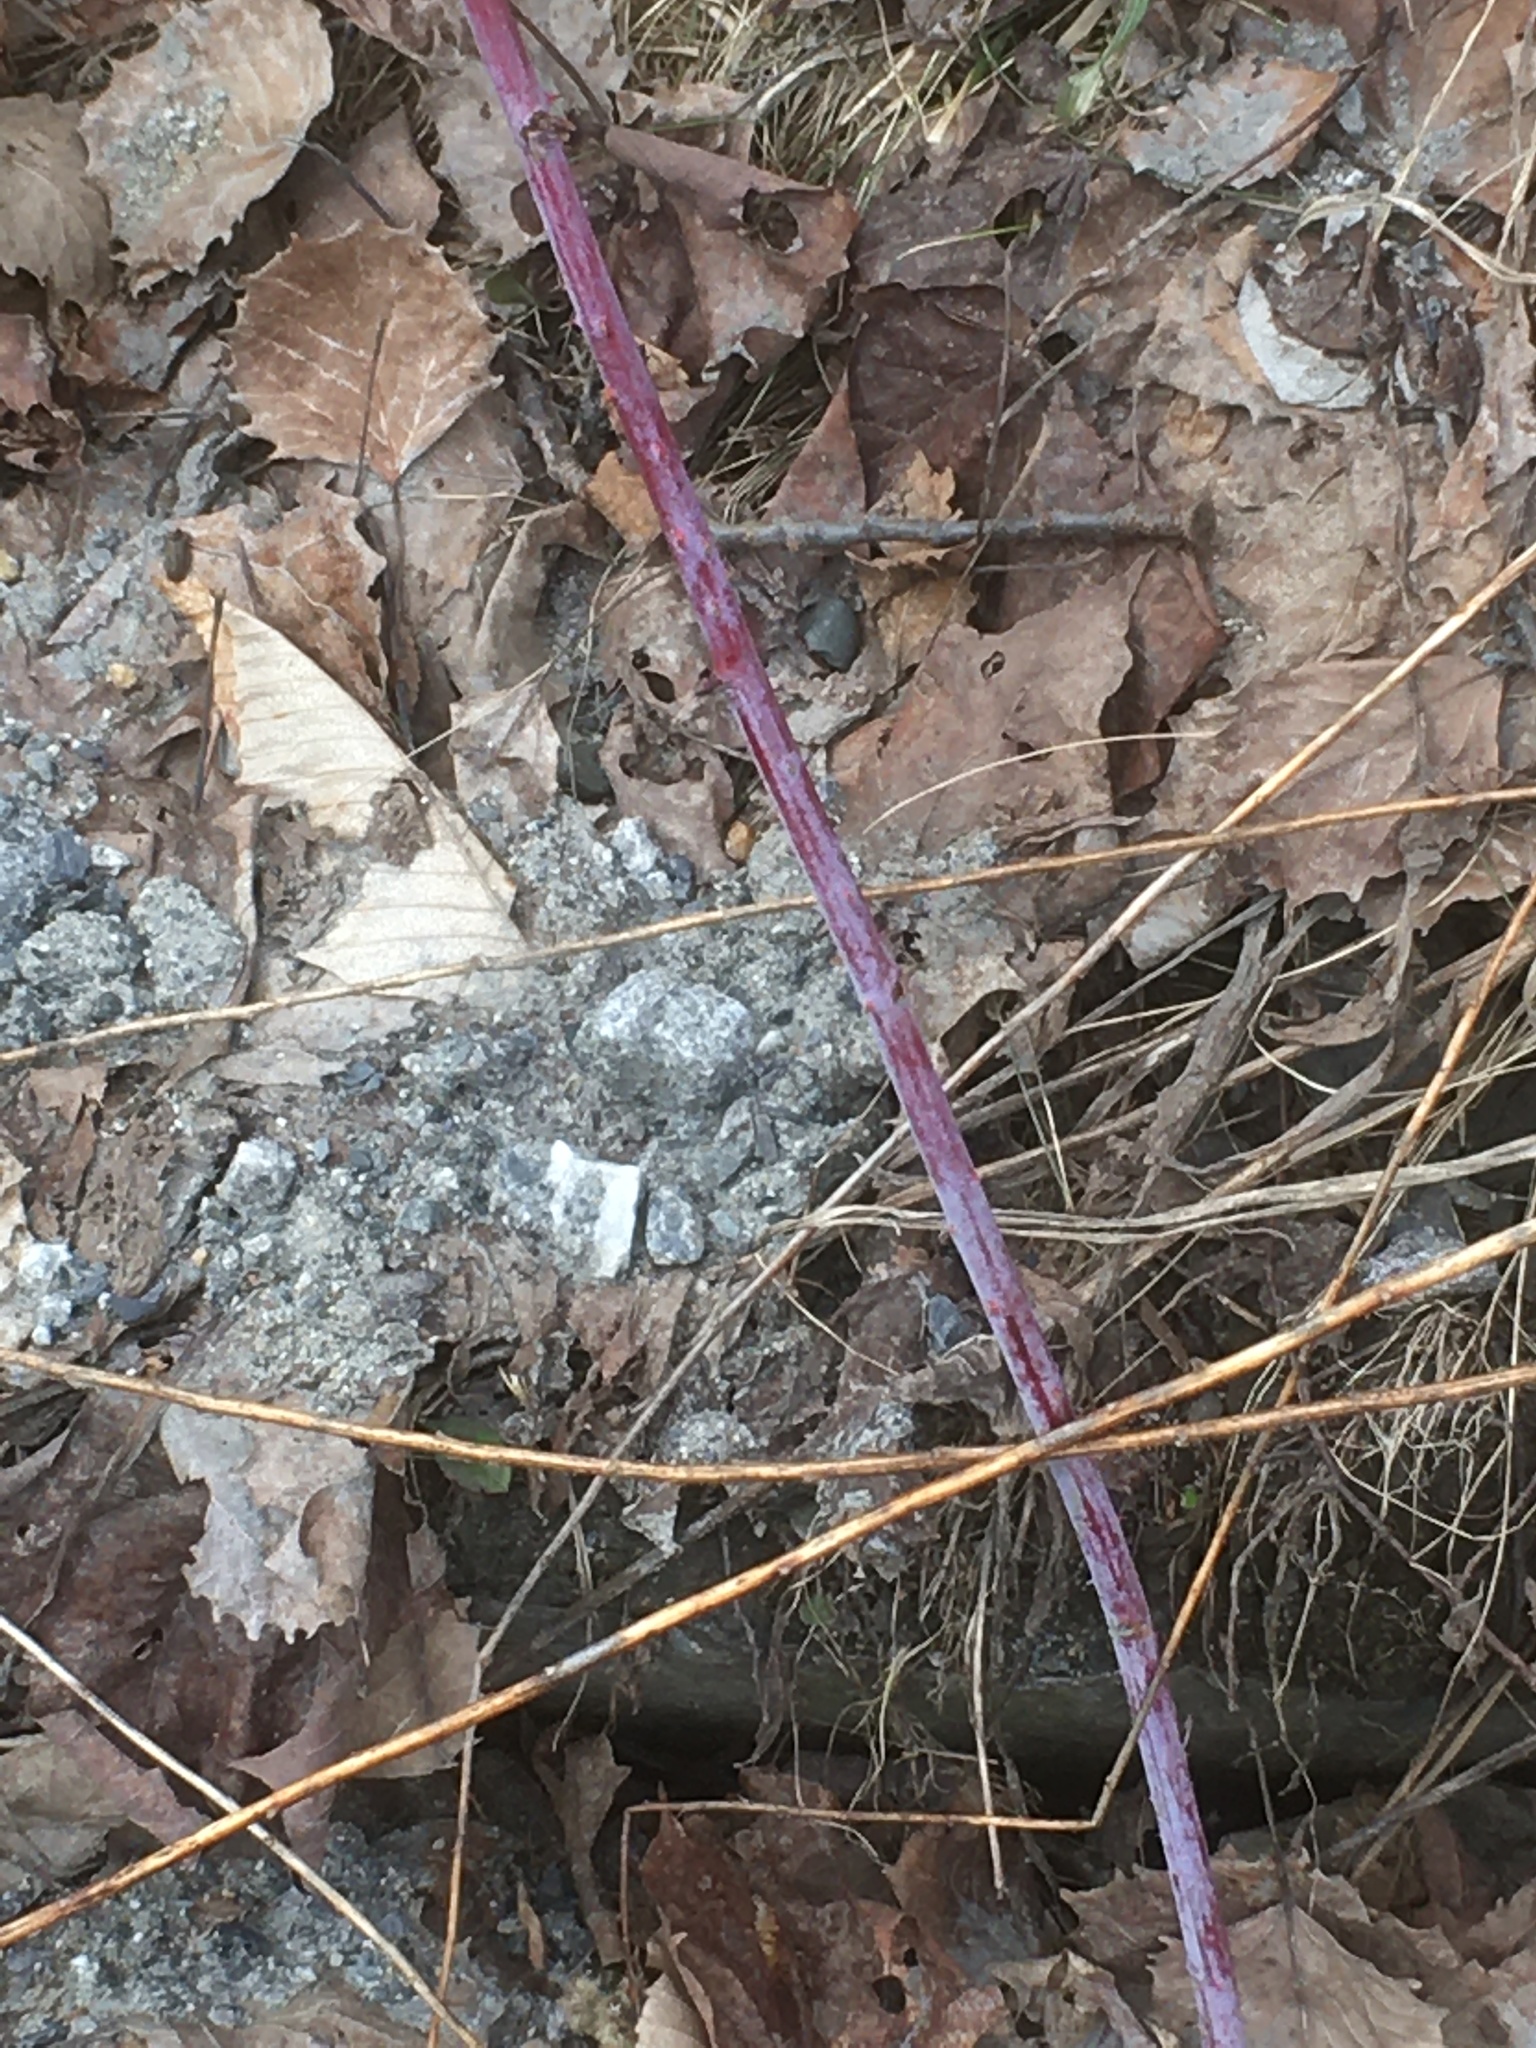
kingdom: Plantae
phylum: Tracheophyta
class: Magnoliopsida
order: Rosales
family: Rosaceae
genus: Rubus
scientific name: Rubus occidentalis
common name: Black raspberry
